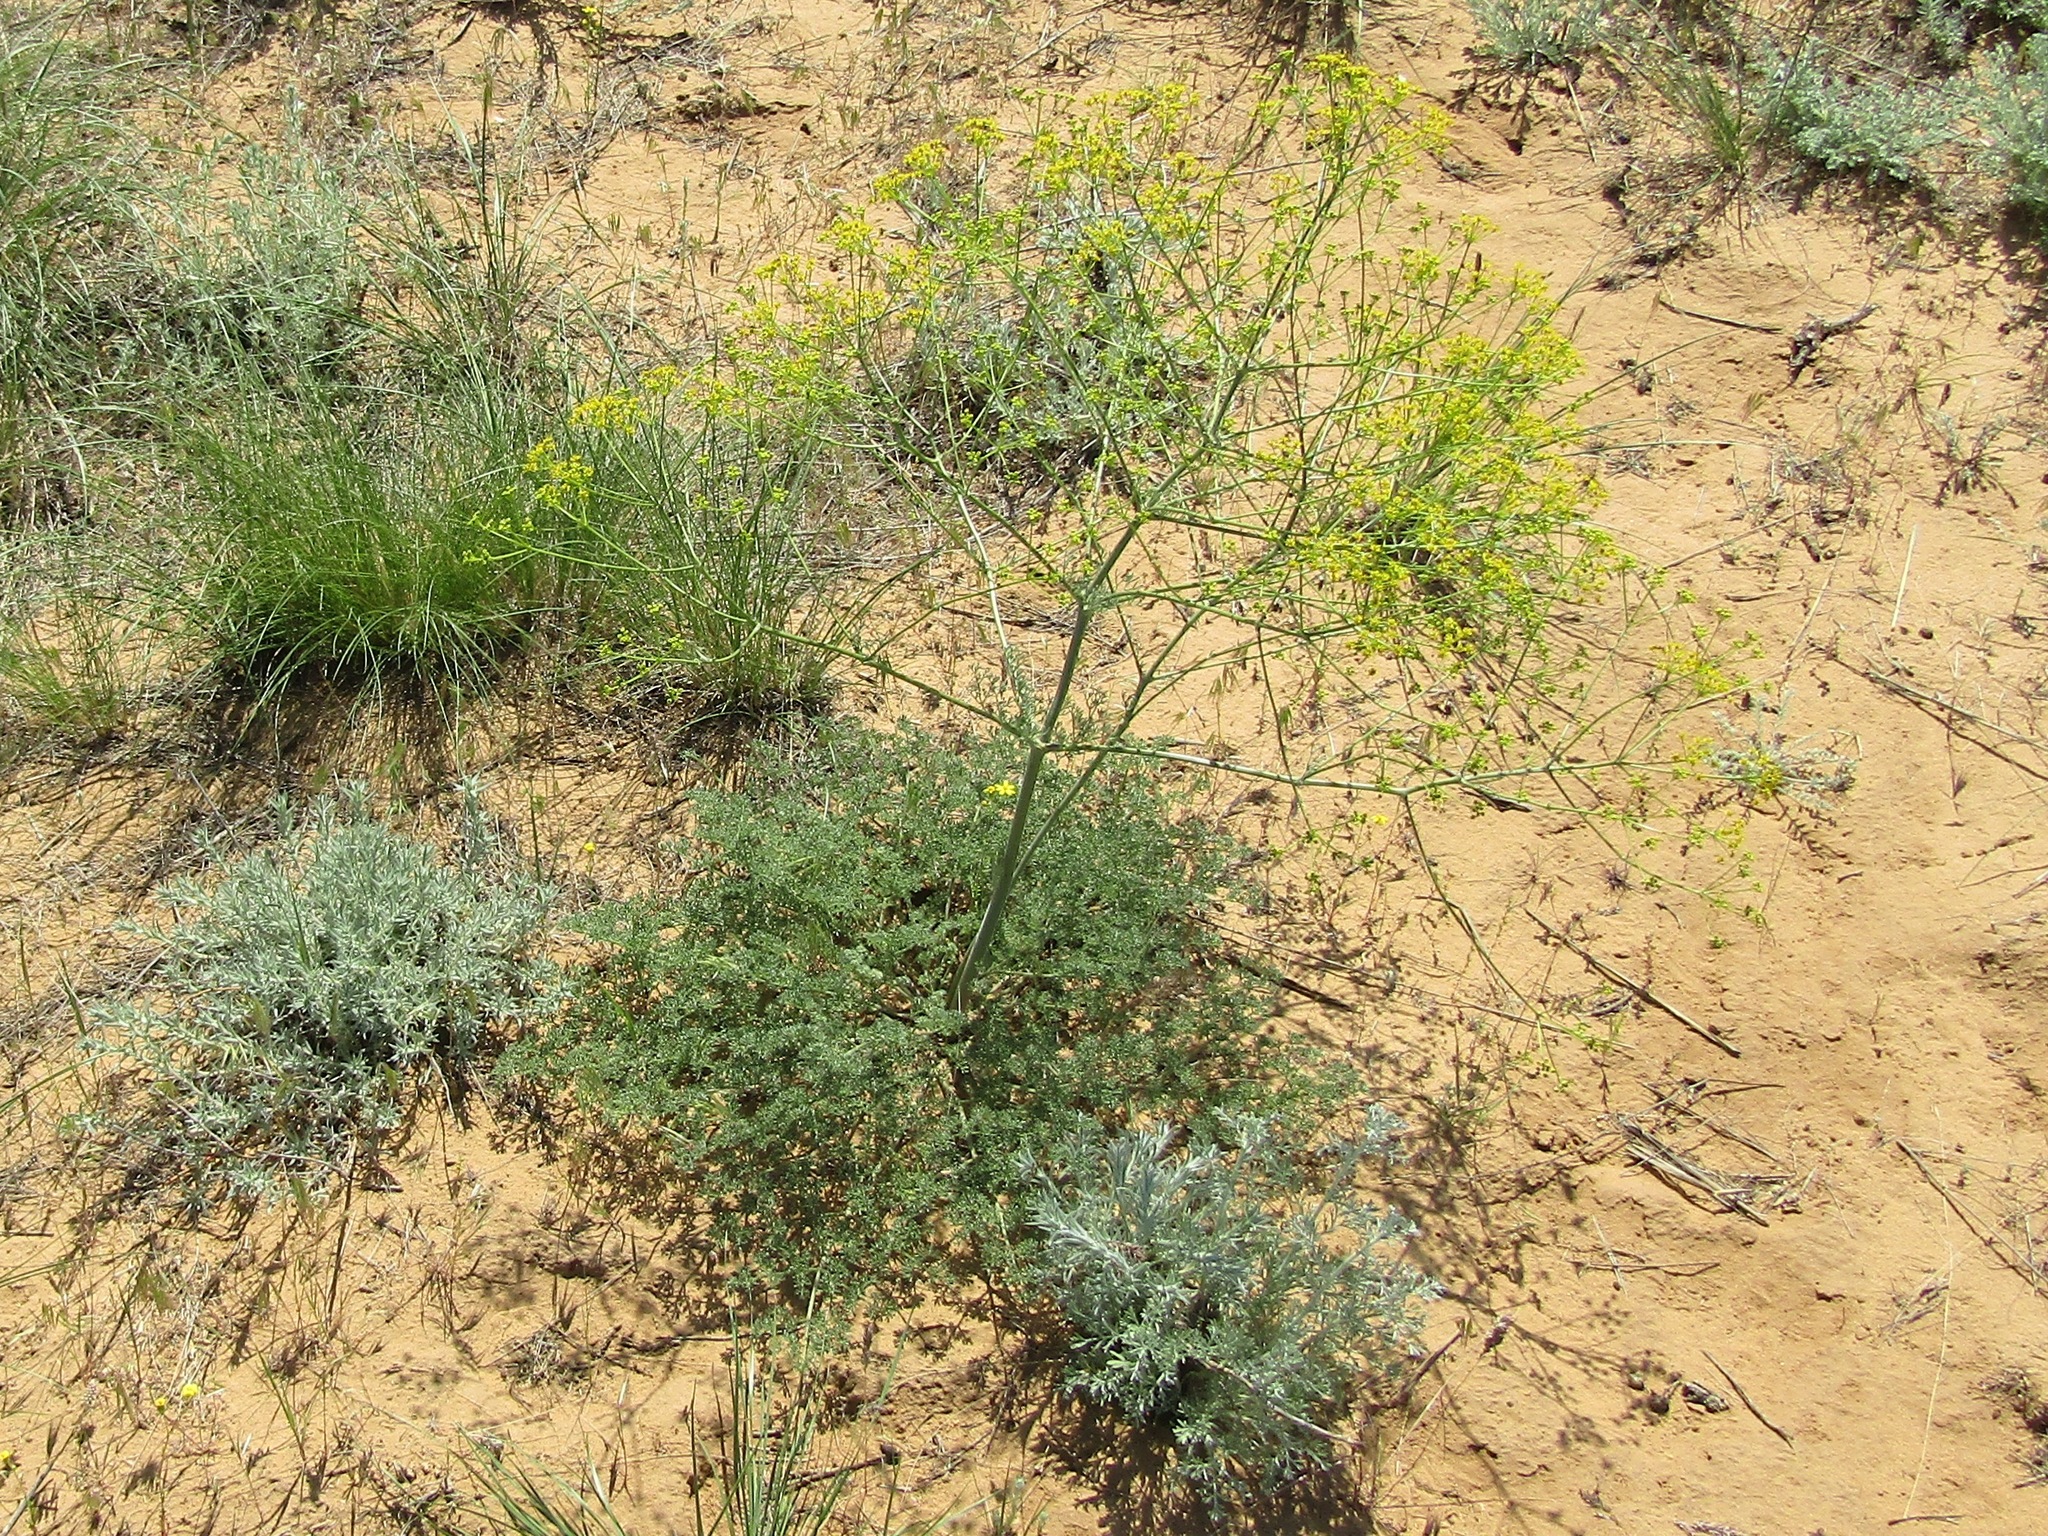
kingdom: Plantae
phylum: Tracheophyta
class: Magnoliopsida
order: Apiales
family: Apiaceae
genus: Ferula
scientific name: Ferula caspica
